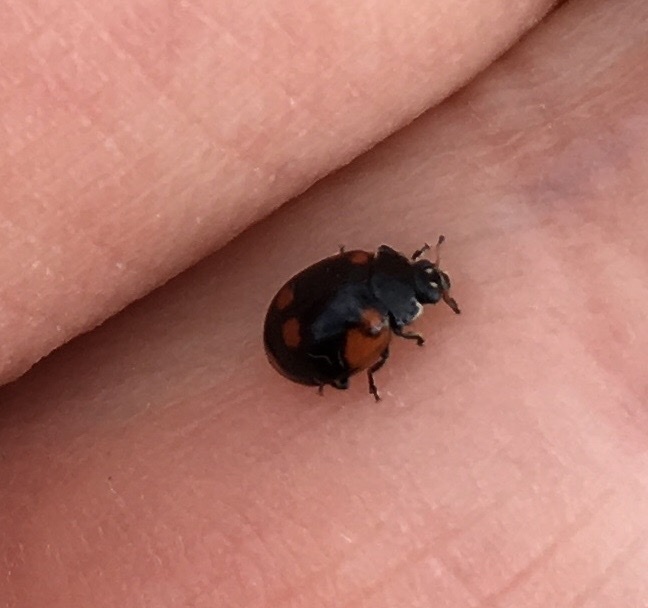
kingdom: Animalia
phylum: Arthropoda
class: Insecta
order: Coleoptera
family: Coccinellidae
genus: Adalia
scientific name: Adalia bipunctata
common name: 2-spot ladybird
